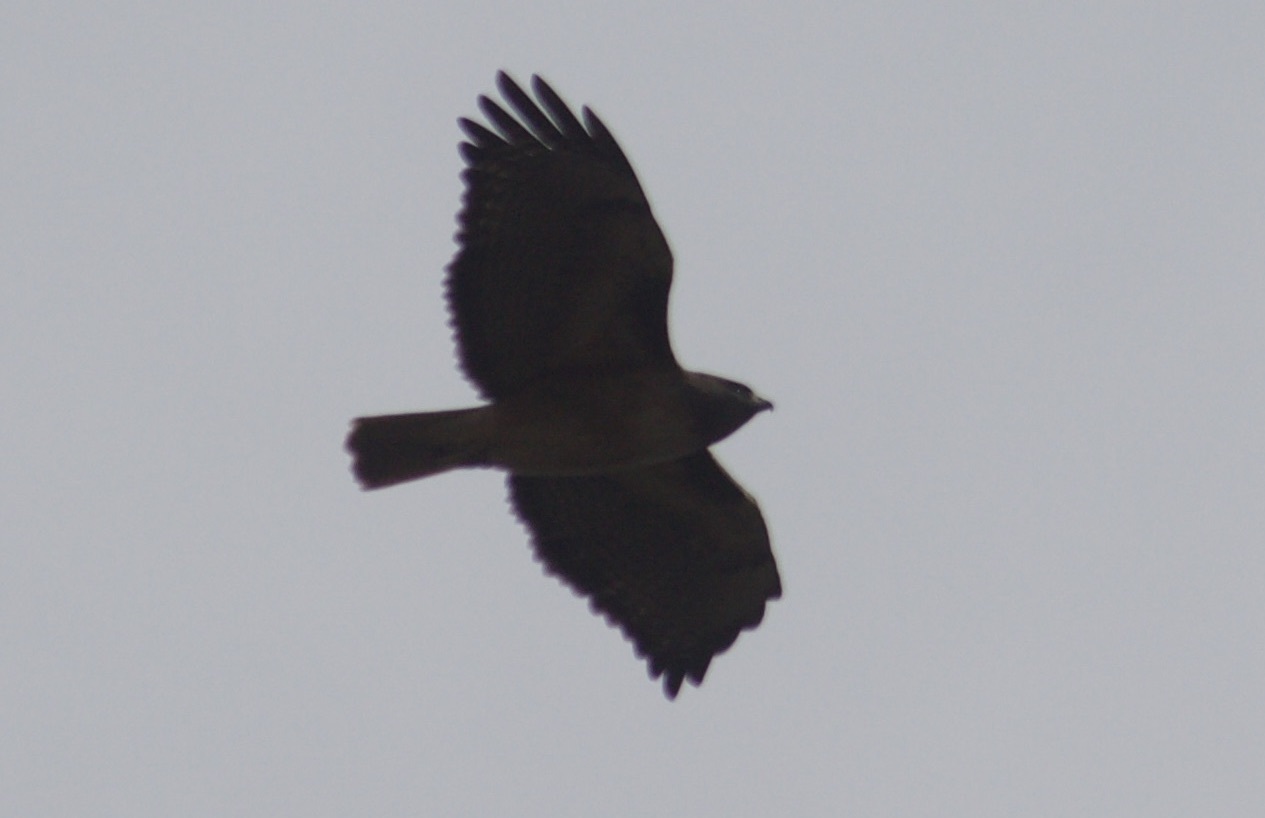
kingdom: Animalia
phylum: Chordata
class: Aves
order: Accipitriformes
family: Accipitridae
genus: Buteo
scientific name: Buteo jamaicensis
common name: Red-tailed hawk
